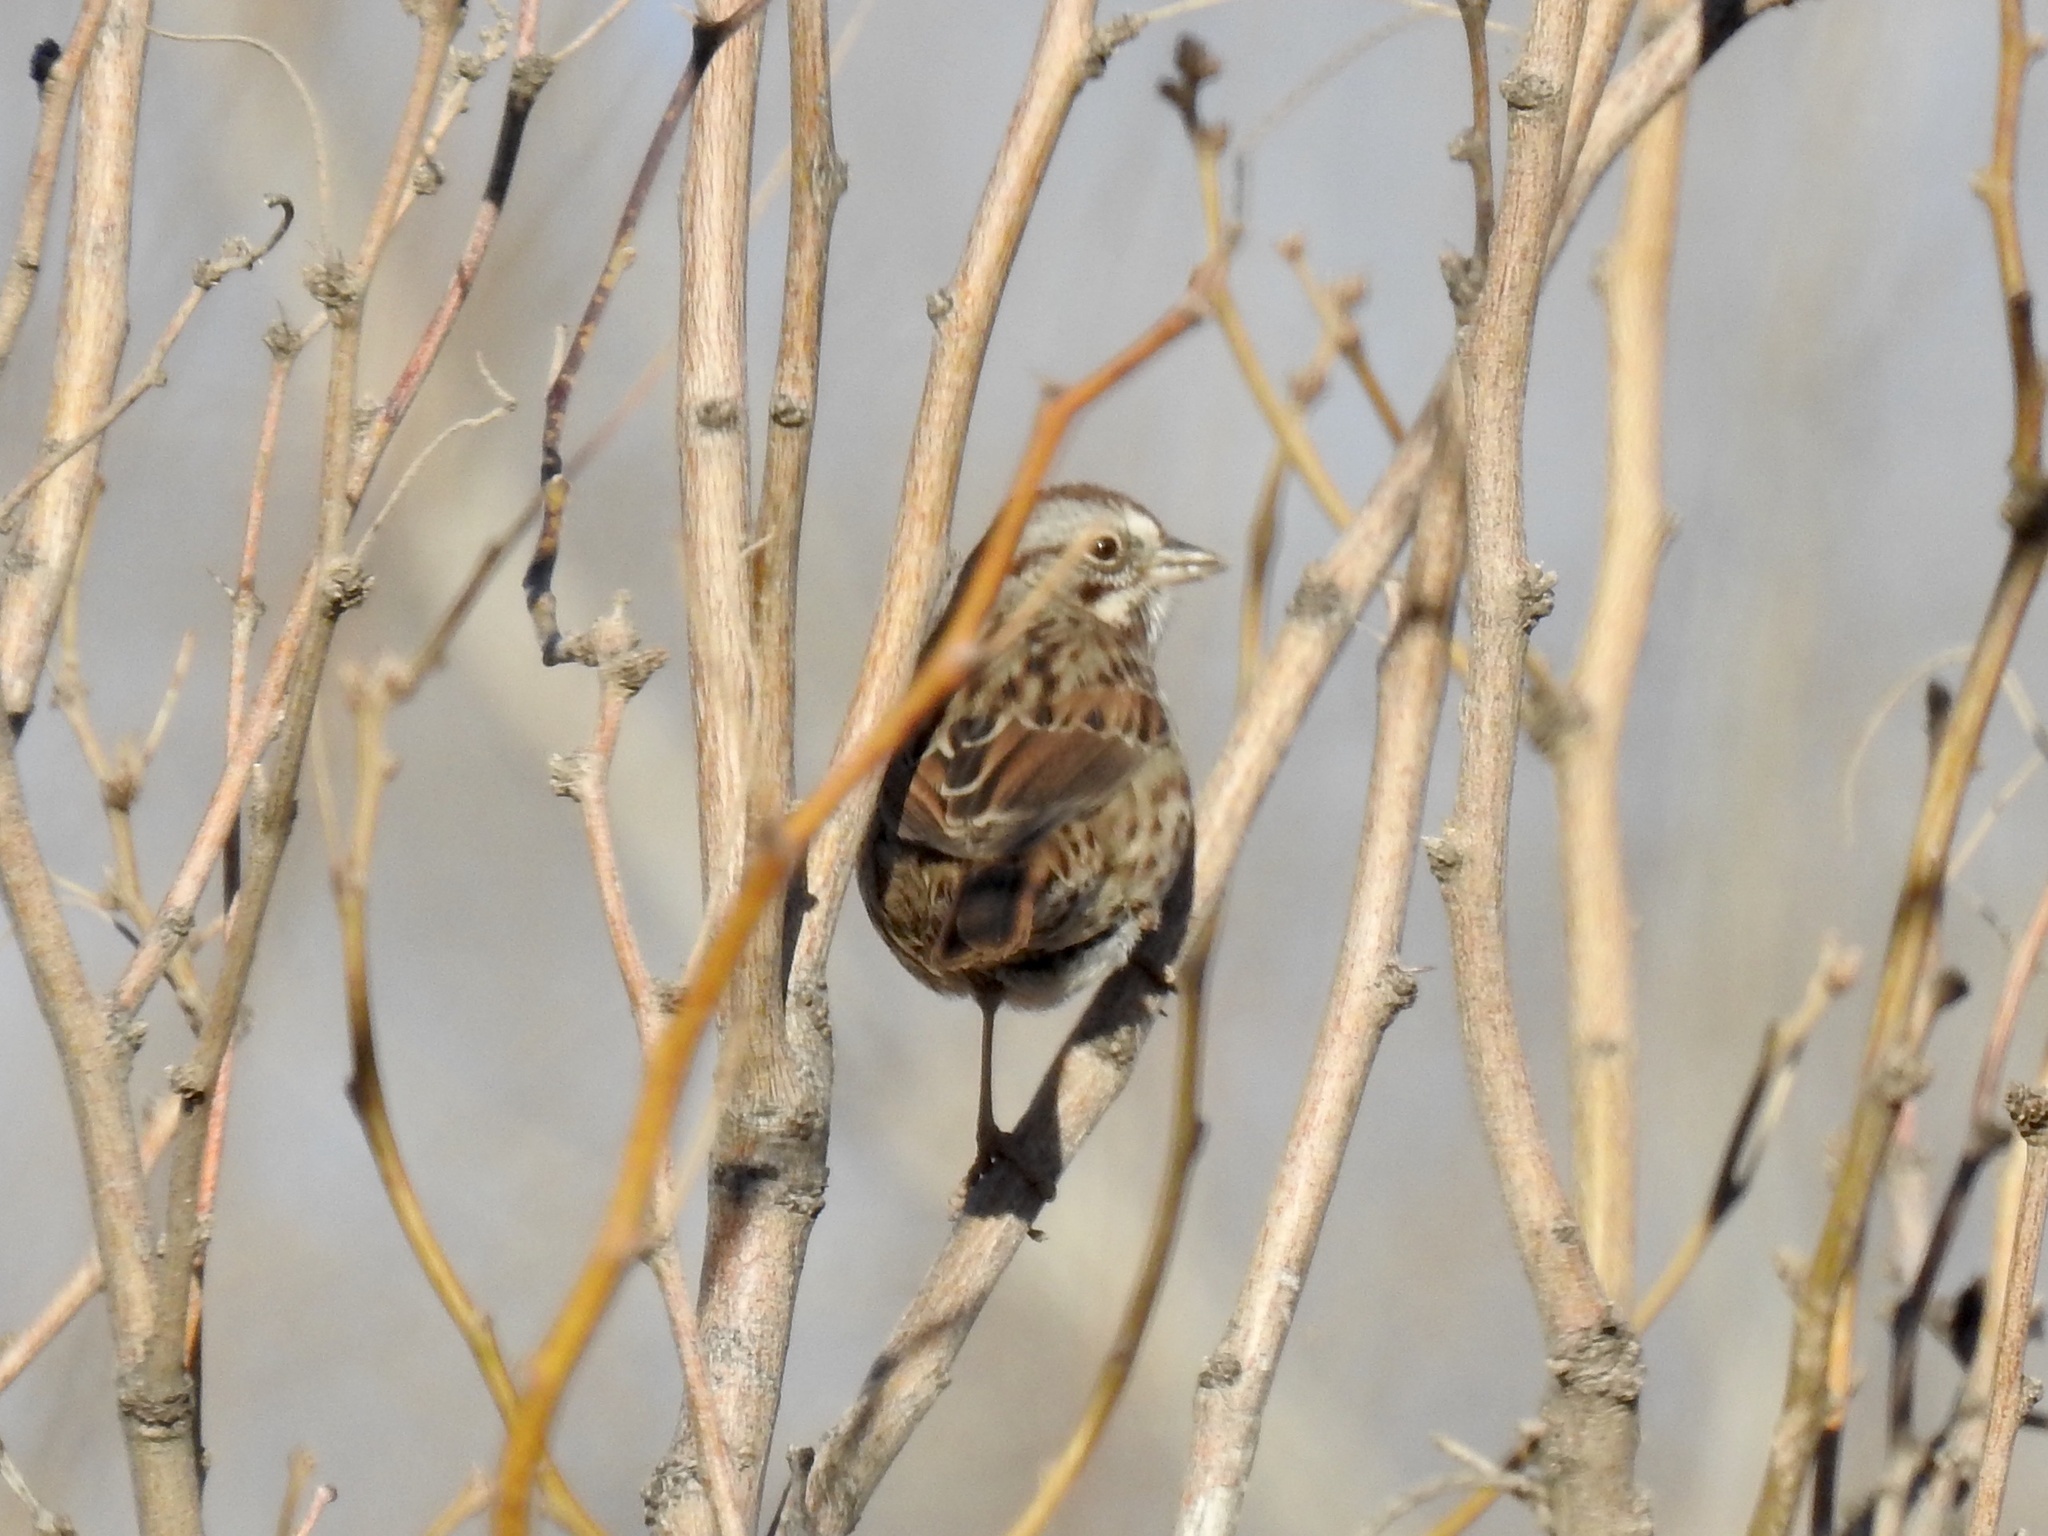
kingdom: Animalia
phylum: Chordata
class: Aves
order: Passeriformes
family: Passerellidae
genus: Melospiza
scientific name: Melospiza melodia
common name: Song sparrow
